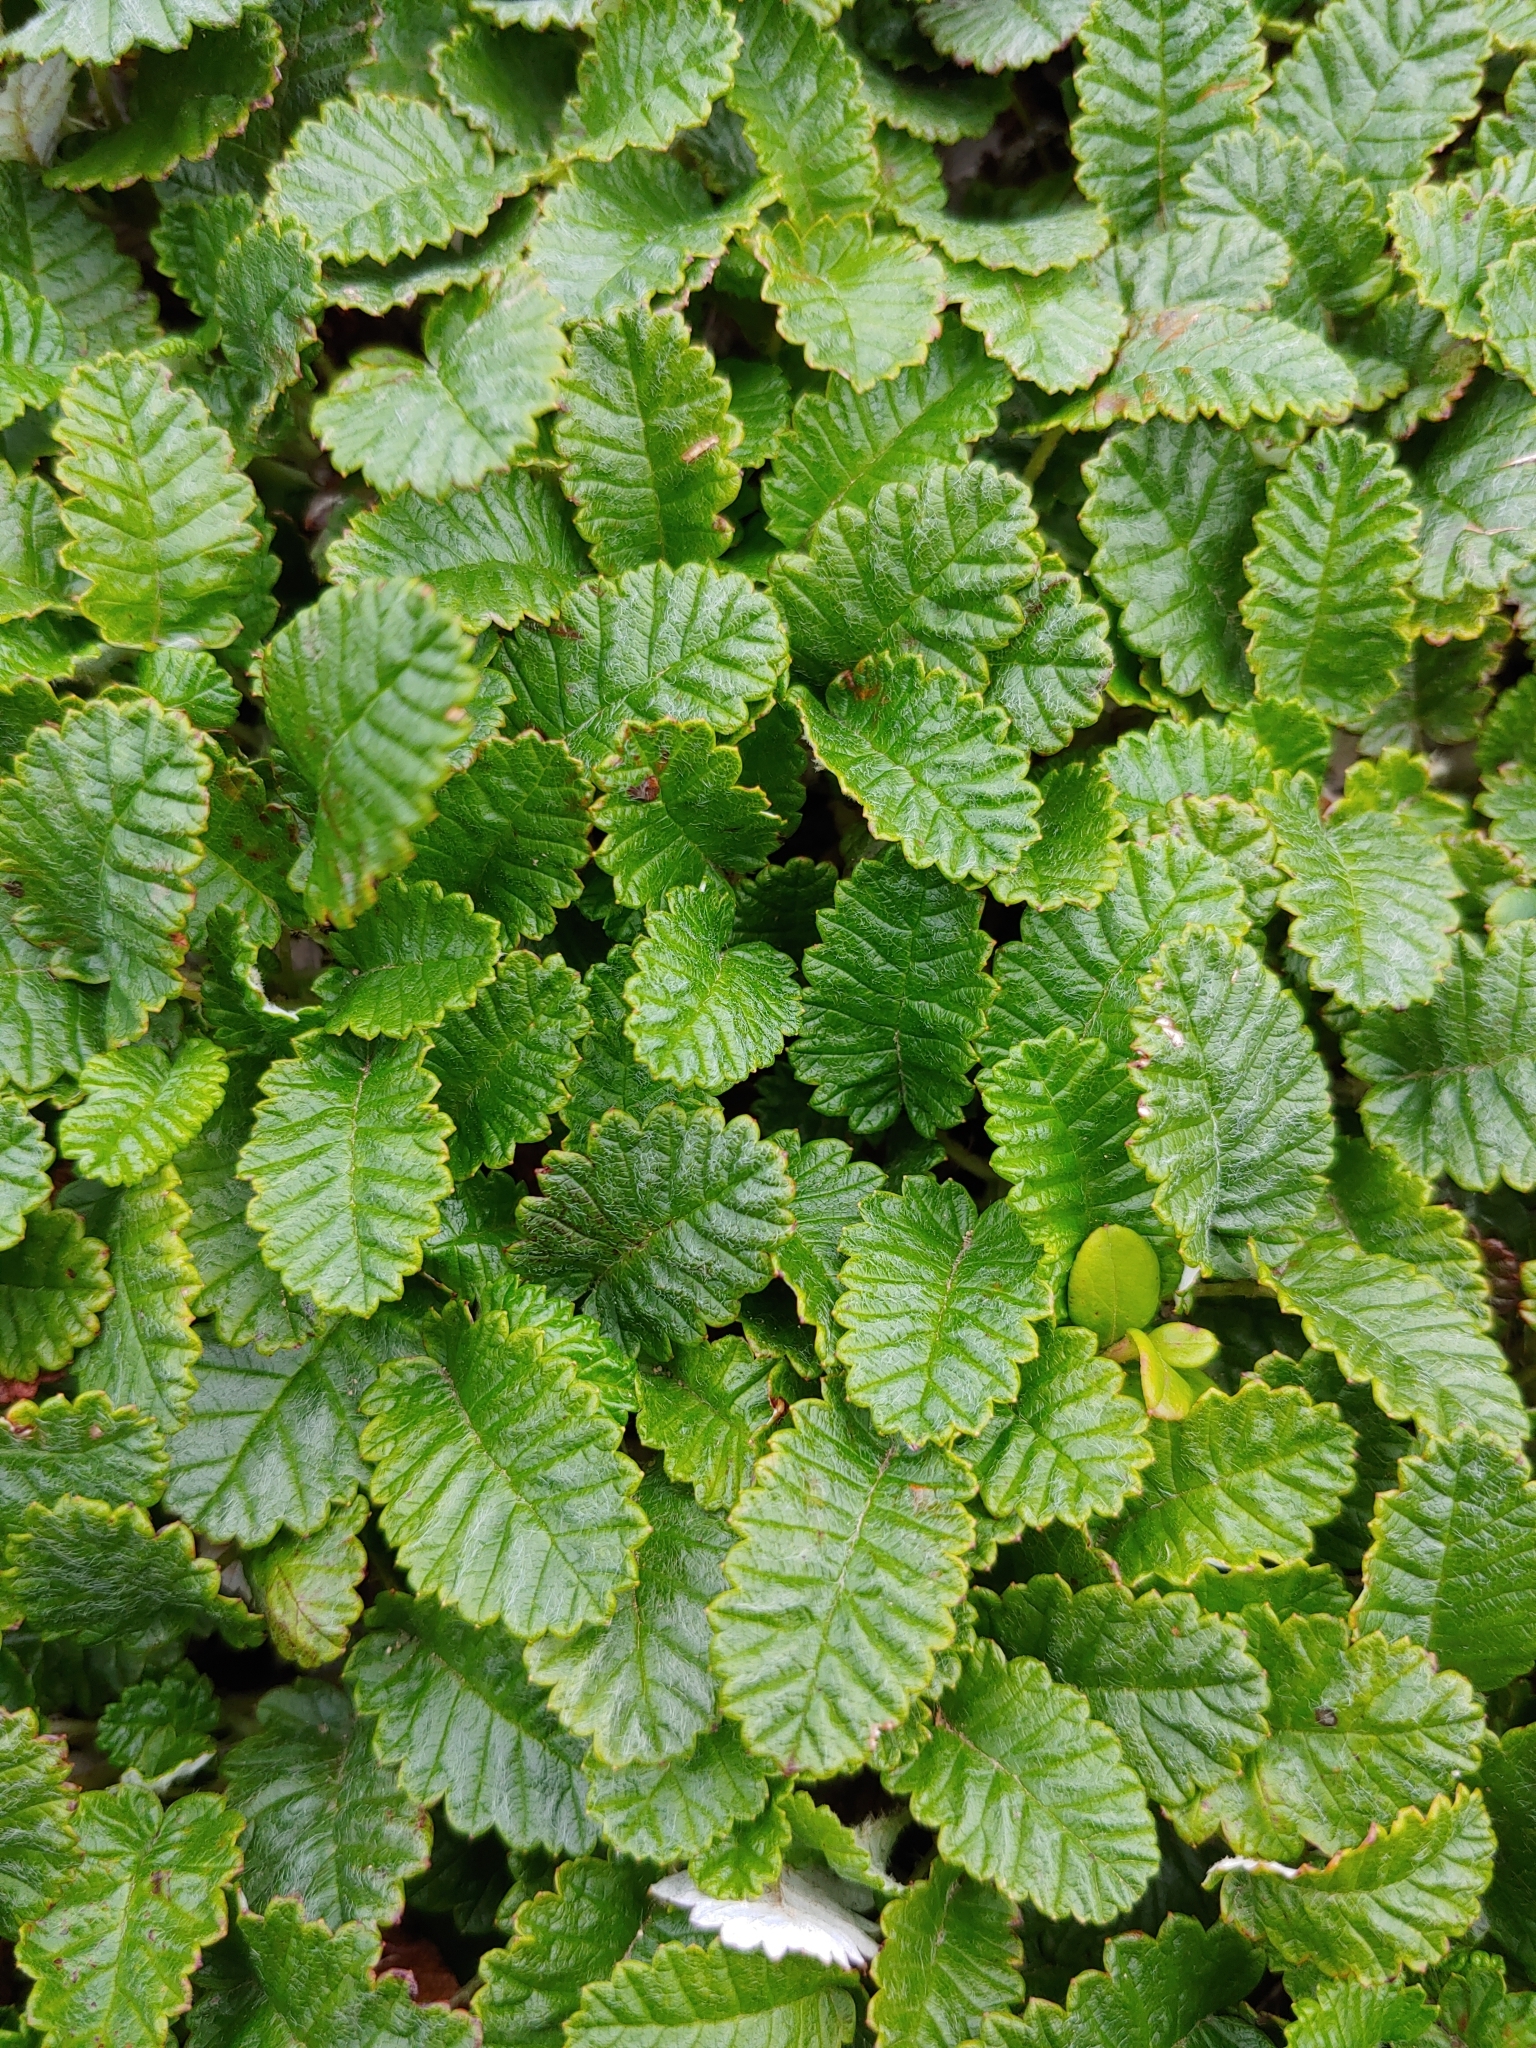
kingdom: Plantae
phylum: Tracheophyta
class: Magnoliopsida
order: Rosales
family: Rosaceae
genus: Dryas
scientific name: Dryas octopetala
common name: Eight-petal mountain-avens
